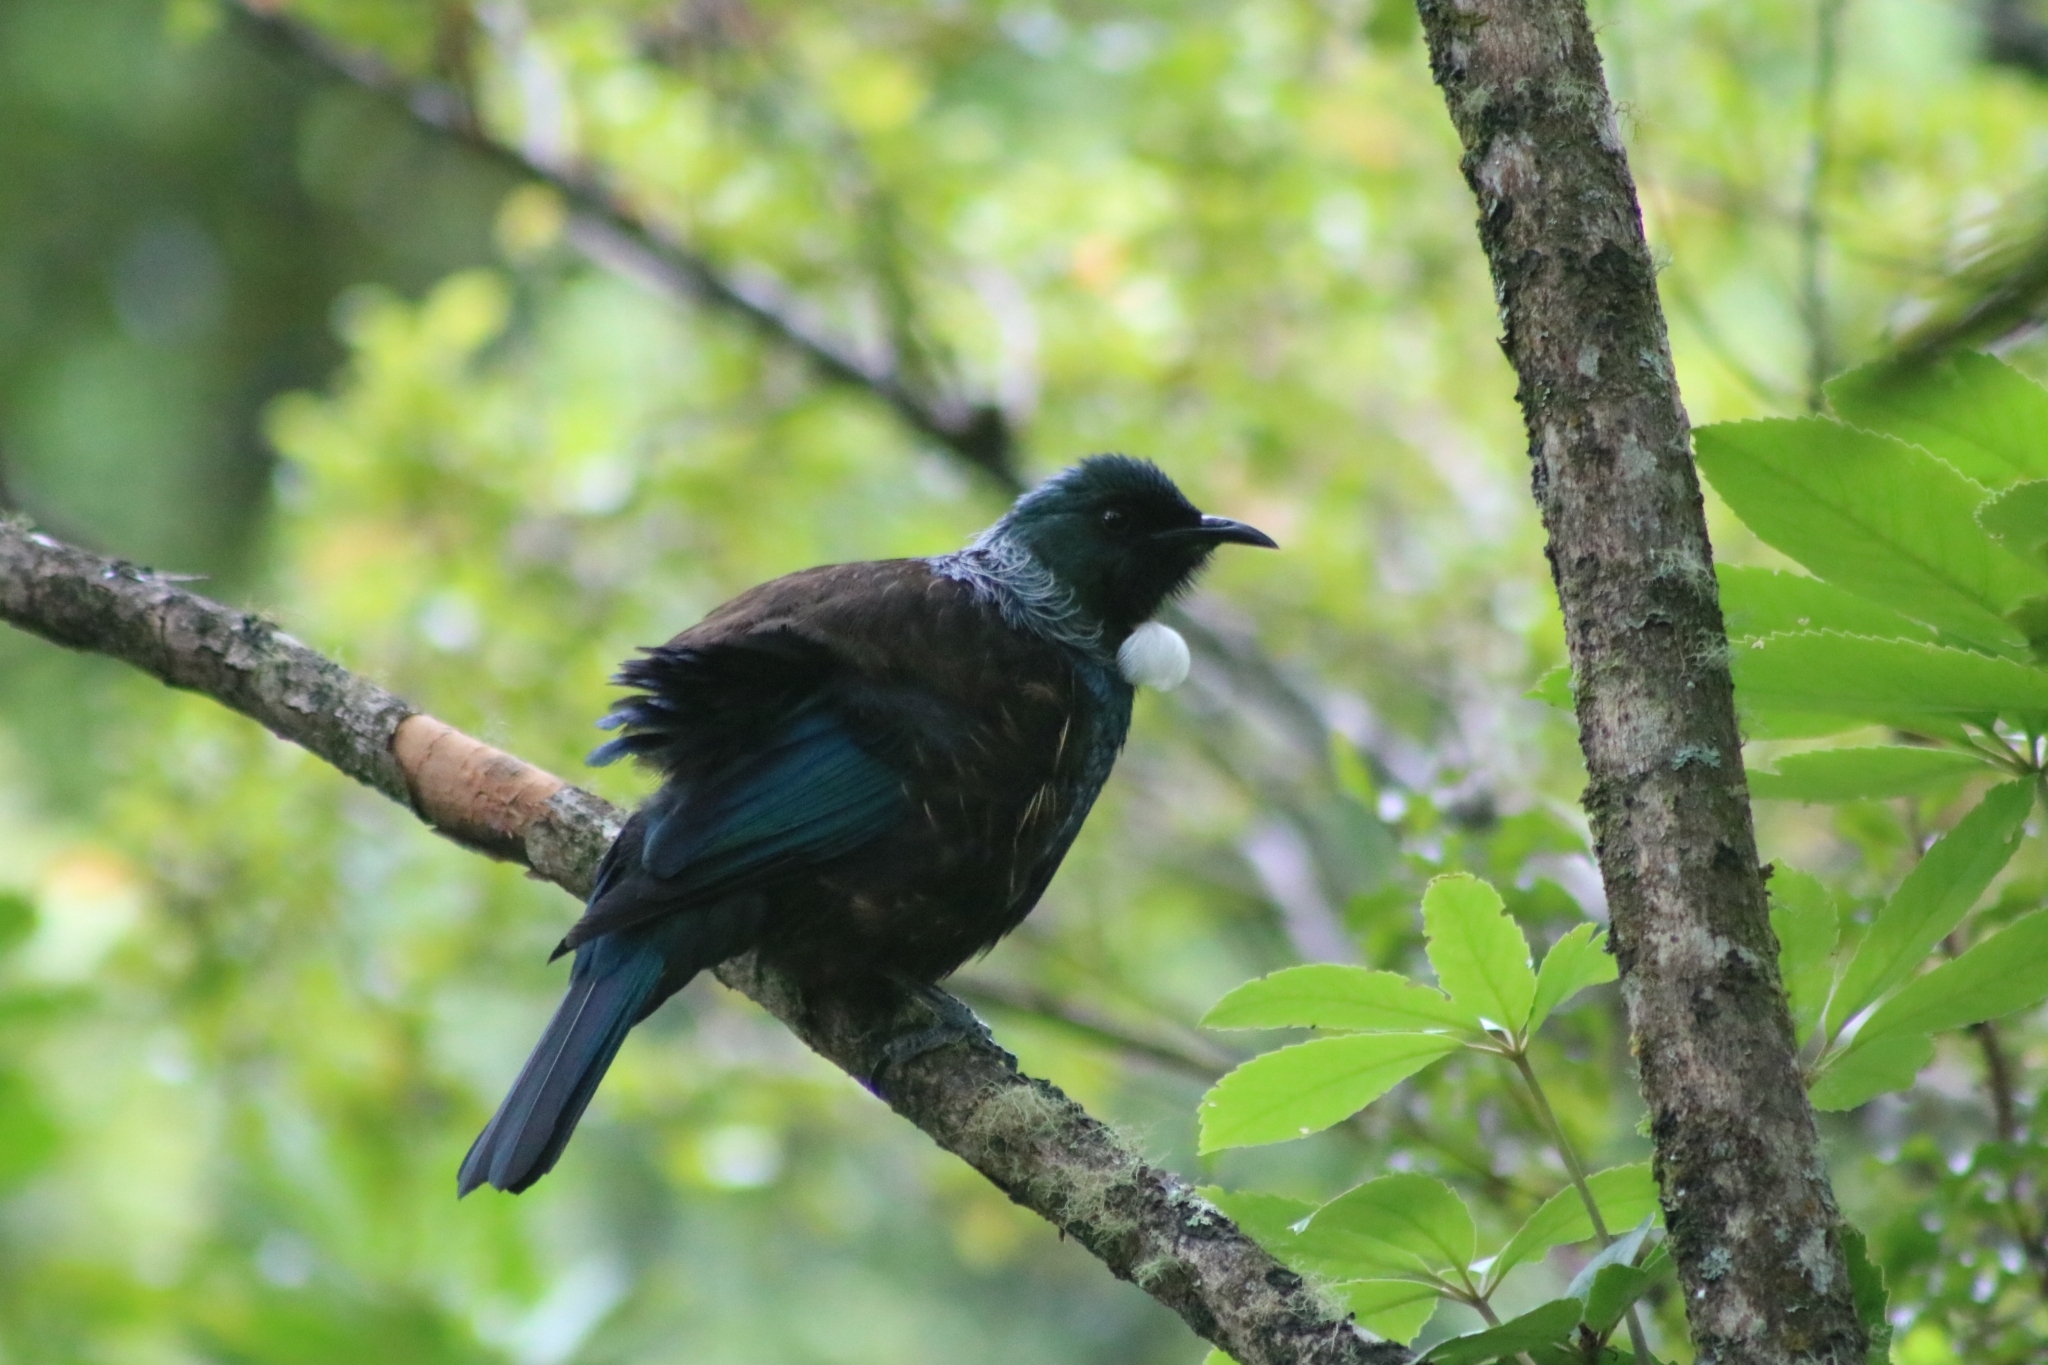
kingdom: Animalia
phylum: Chordata
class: Aves
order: Passeriformes
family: Meliphagidae
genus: Prosthemadera
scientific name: Prosthemadera novaeseelandiae
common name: Tui
